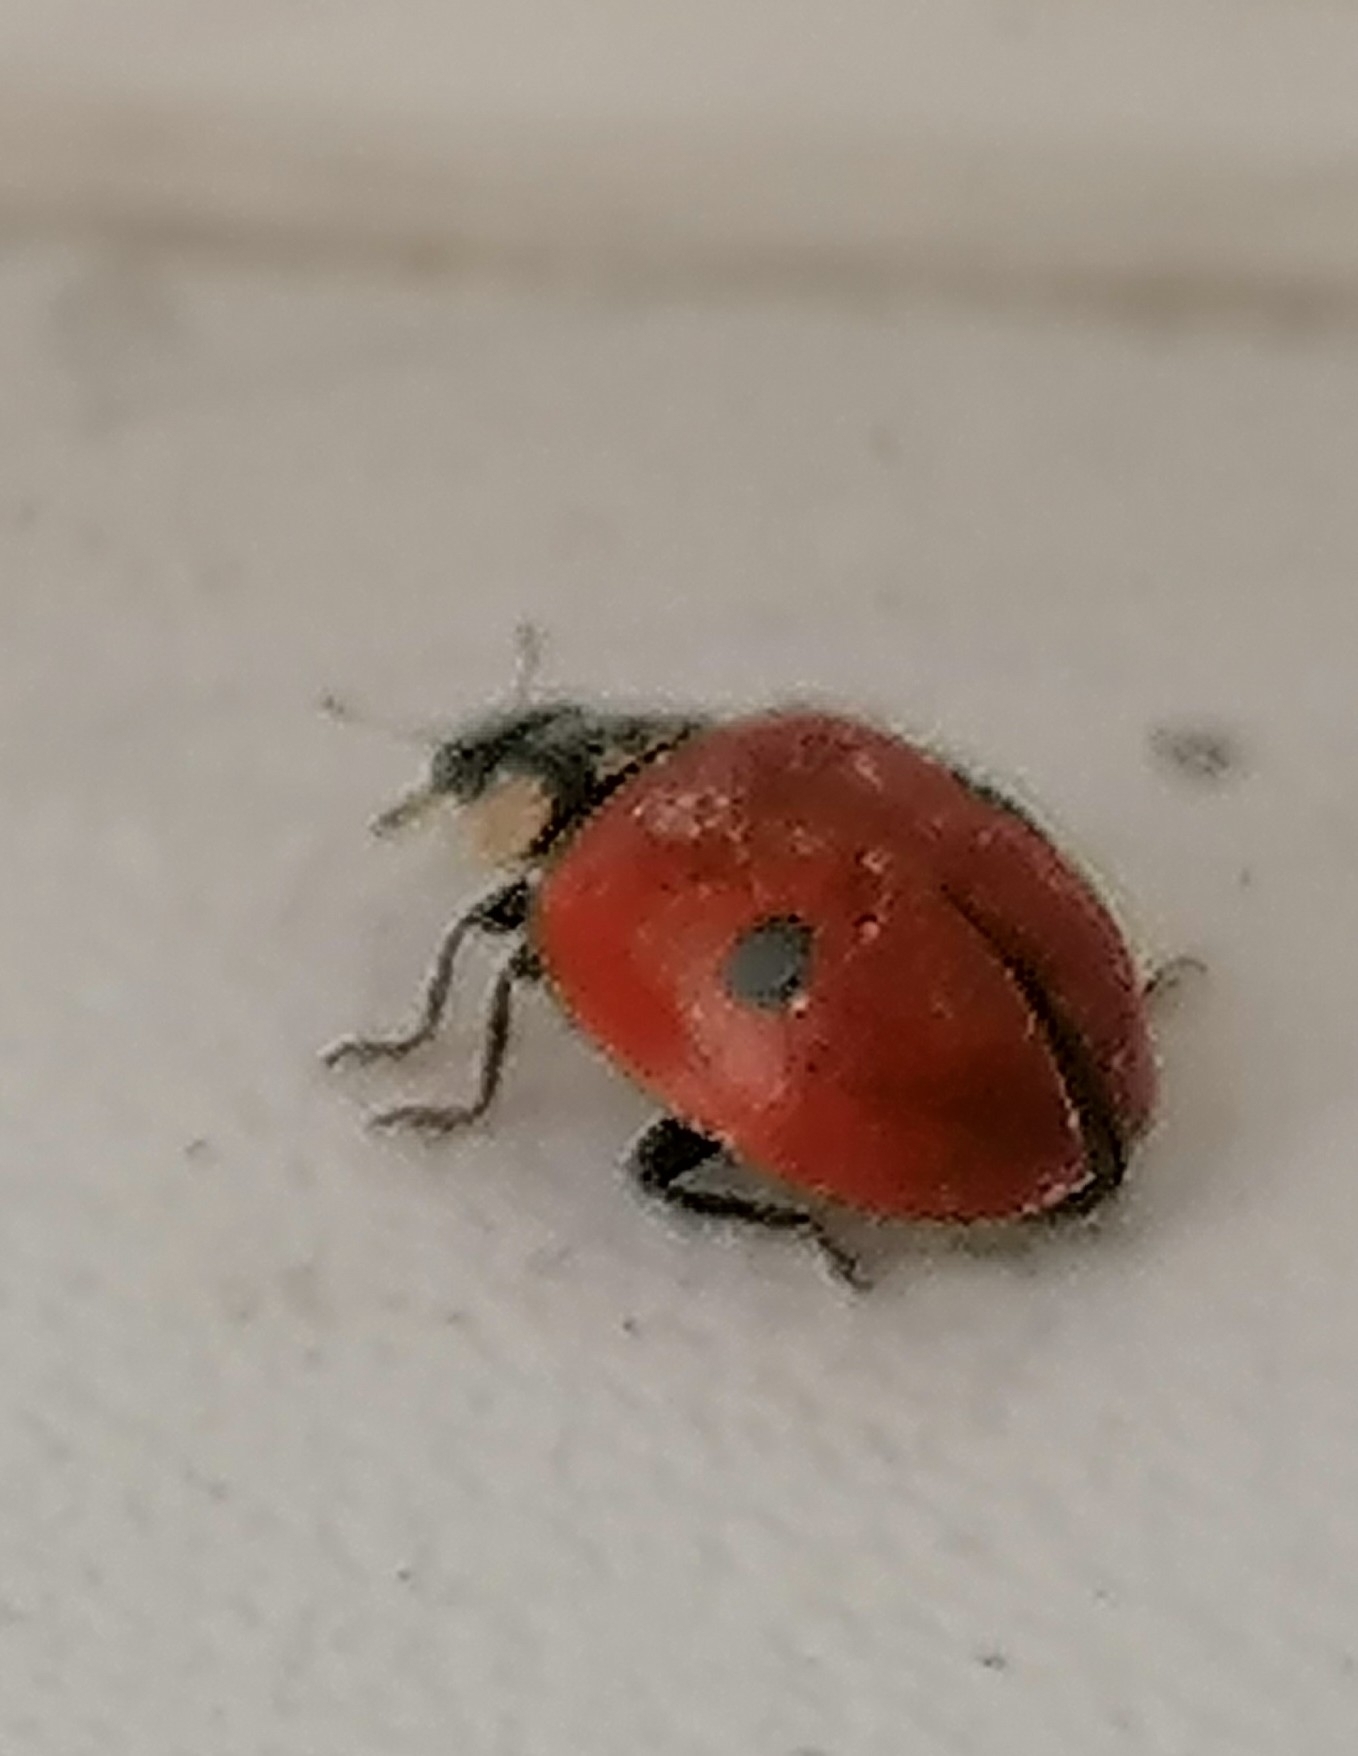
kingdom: Animalia
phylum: Arthropoda
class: Insecta
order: Coleoptera
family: Coccinellidae
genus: Adalia
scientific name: Adalia bipunctata
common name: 2-spot ladybird
